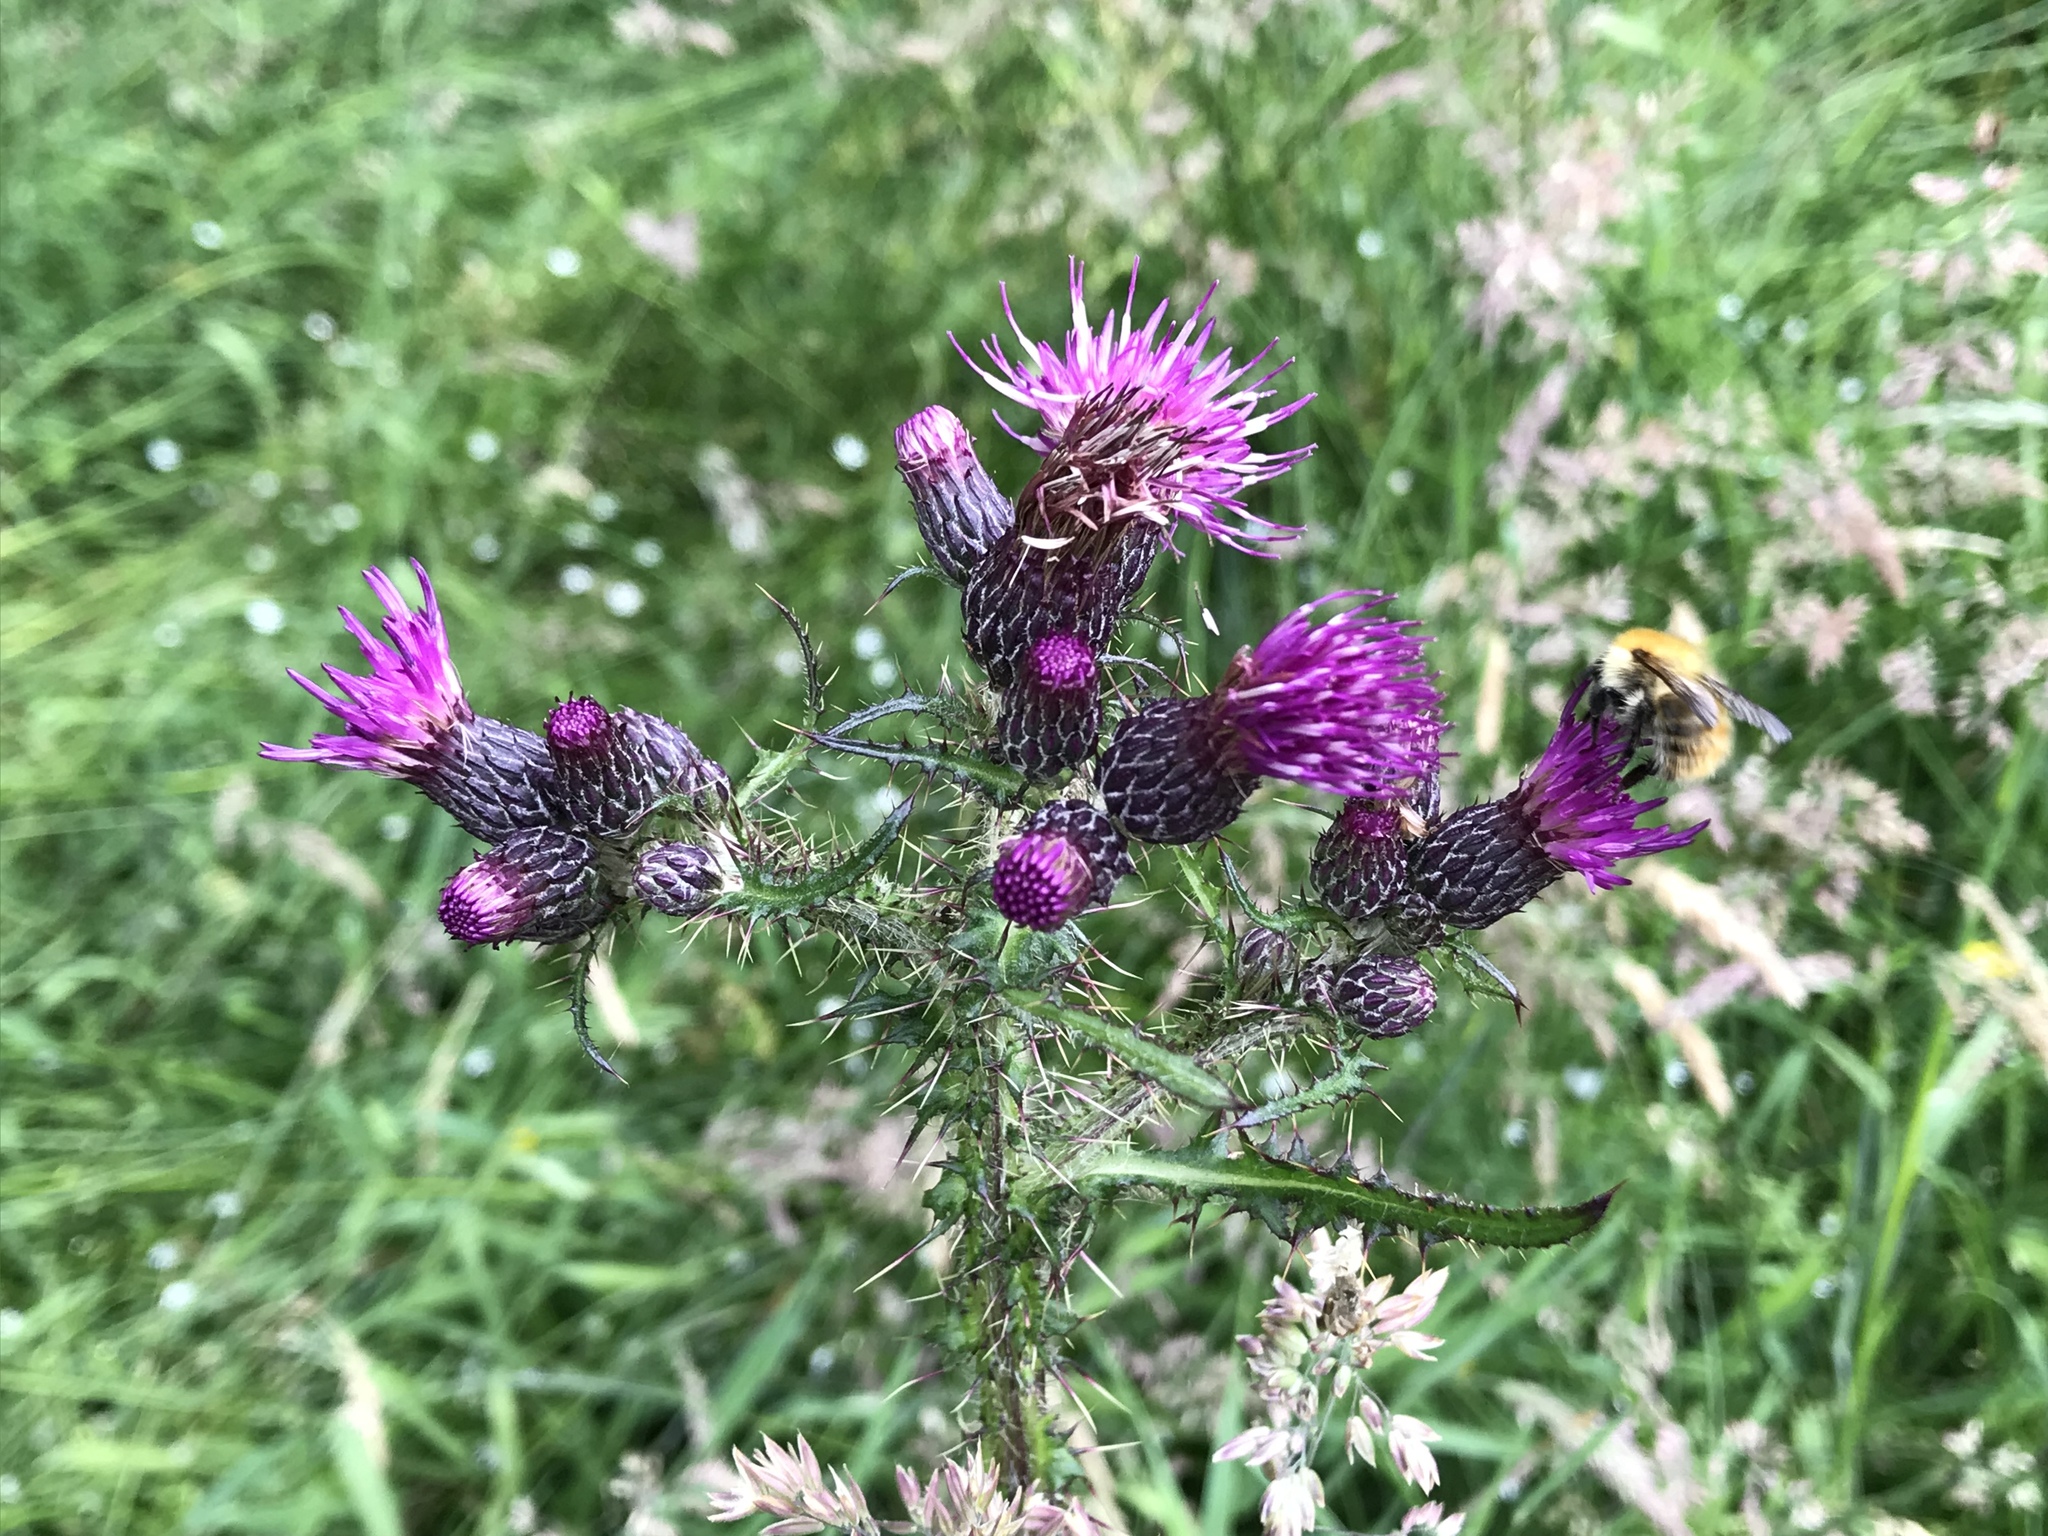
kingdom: Plantae
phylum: Tracheophyta
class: Magnoliopsida
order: Asterales
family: Asteraceae
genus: Cirsium
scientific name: Cirsium palustre
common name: Marsh thistle
